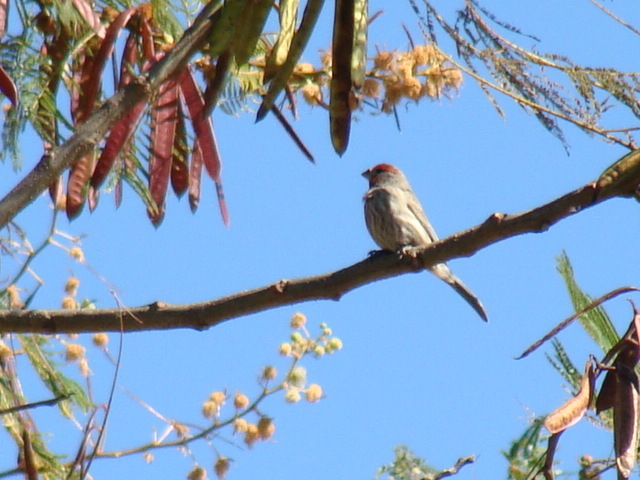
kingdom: Animalia
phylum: Chordata
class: Aves
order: Passeriformes
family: Fringillidae
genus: Haemorhous
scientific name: Haemorhous mexicanus
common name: House finch
